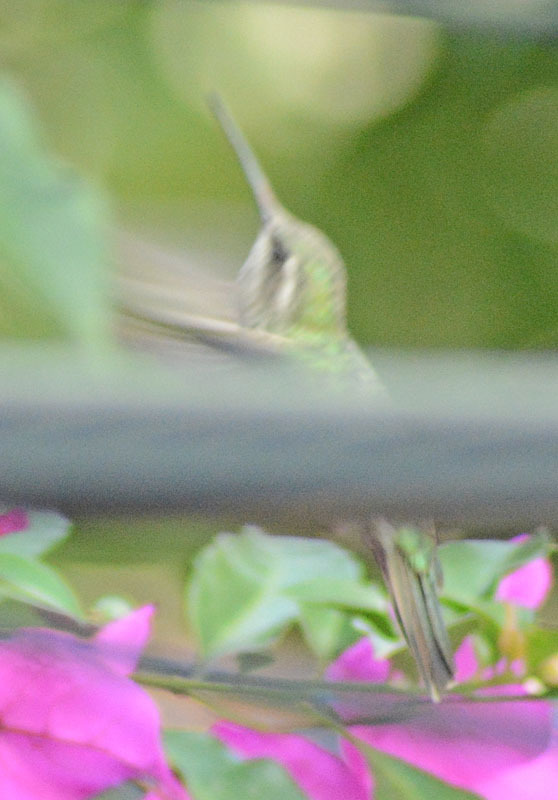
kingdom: Animalia
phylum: Chordata
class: Aves
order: Apodiformes
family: Trochilidae
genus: Cynanthus
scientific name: Cynanthus latirostris
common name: Broad-billed hummingbird
